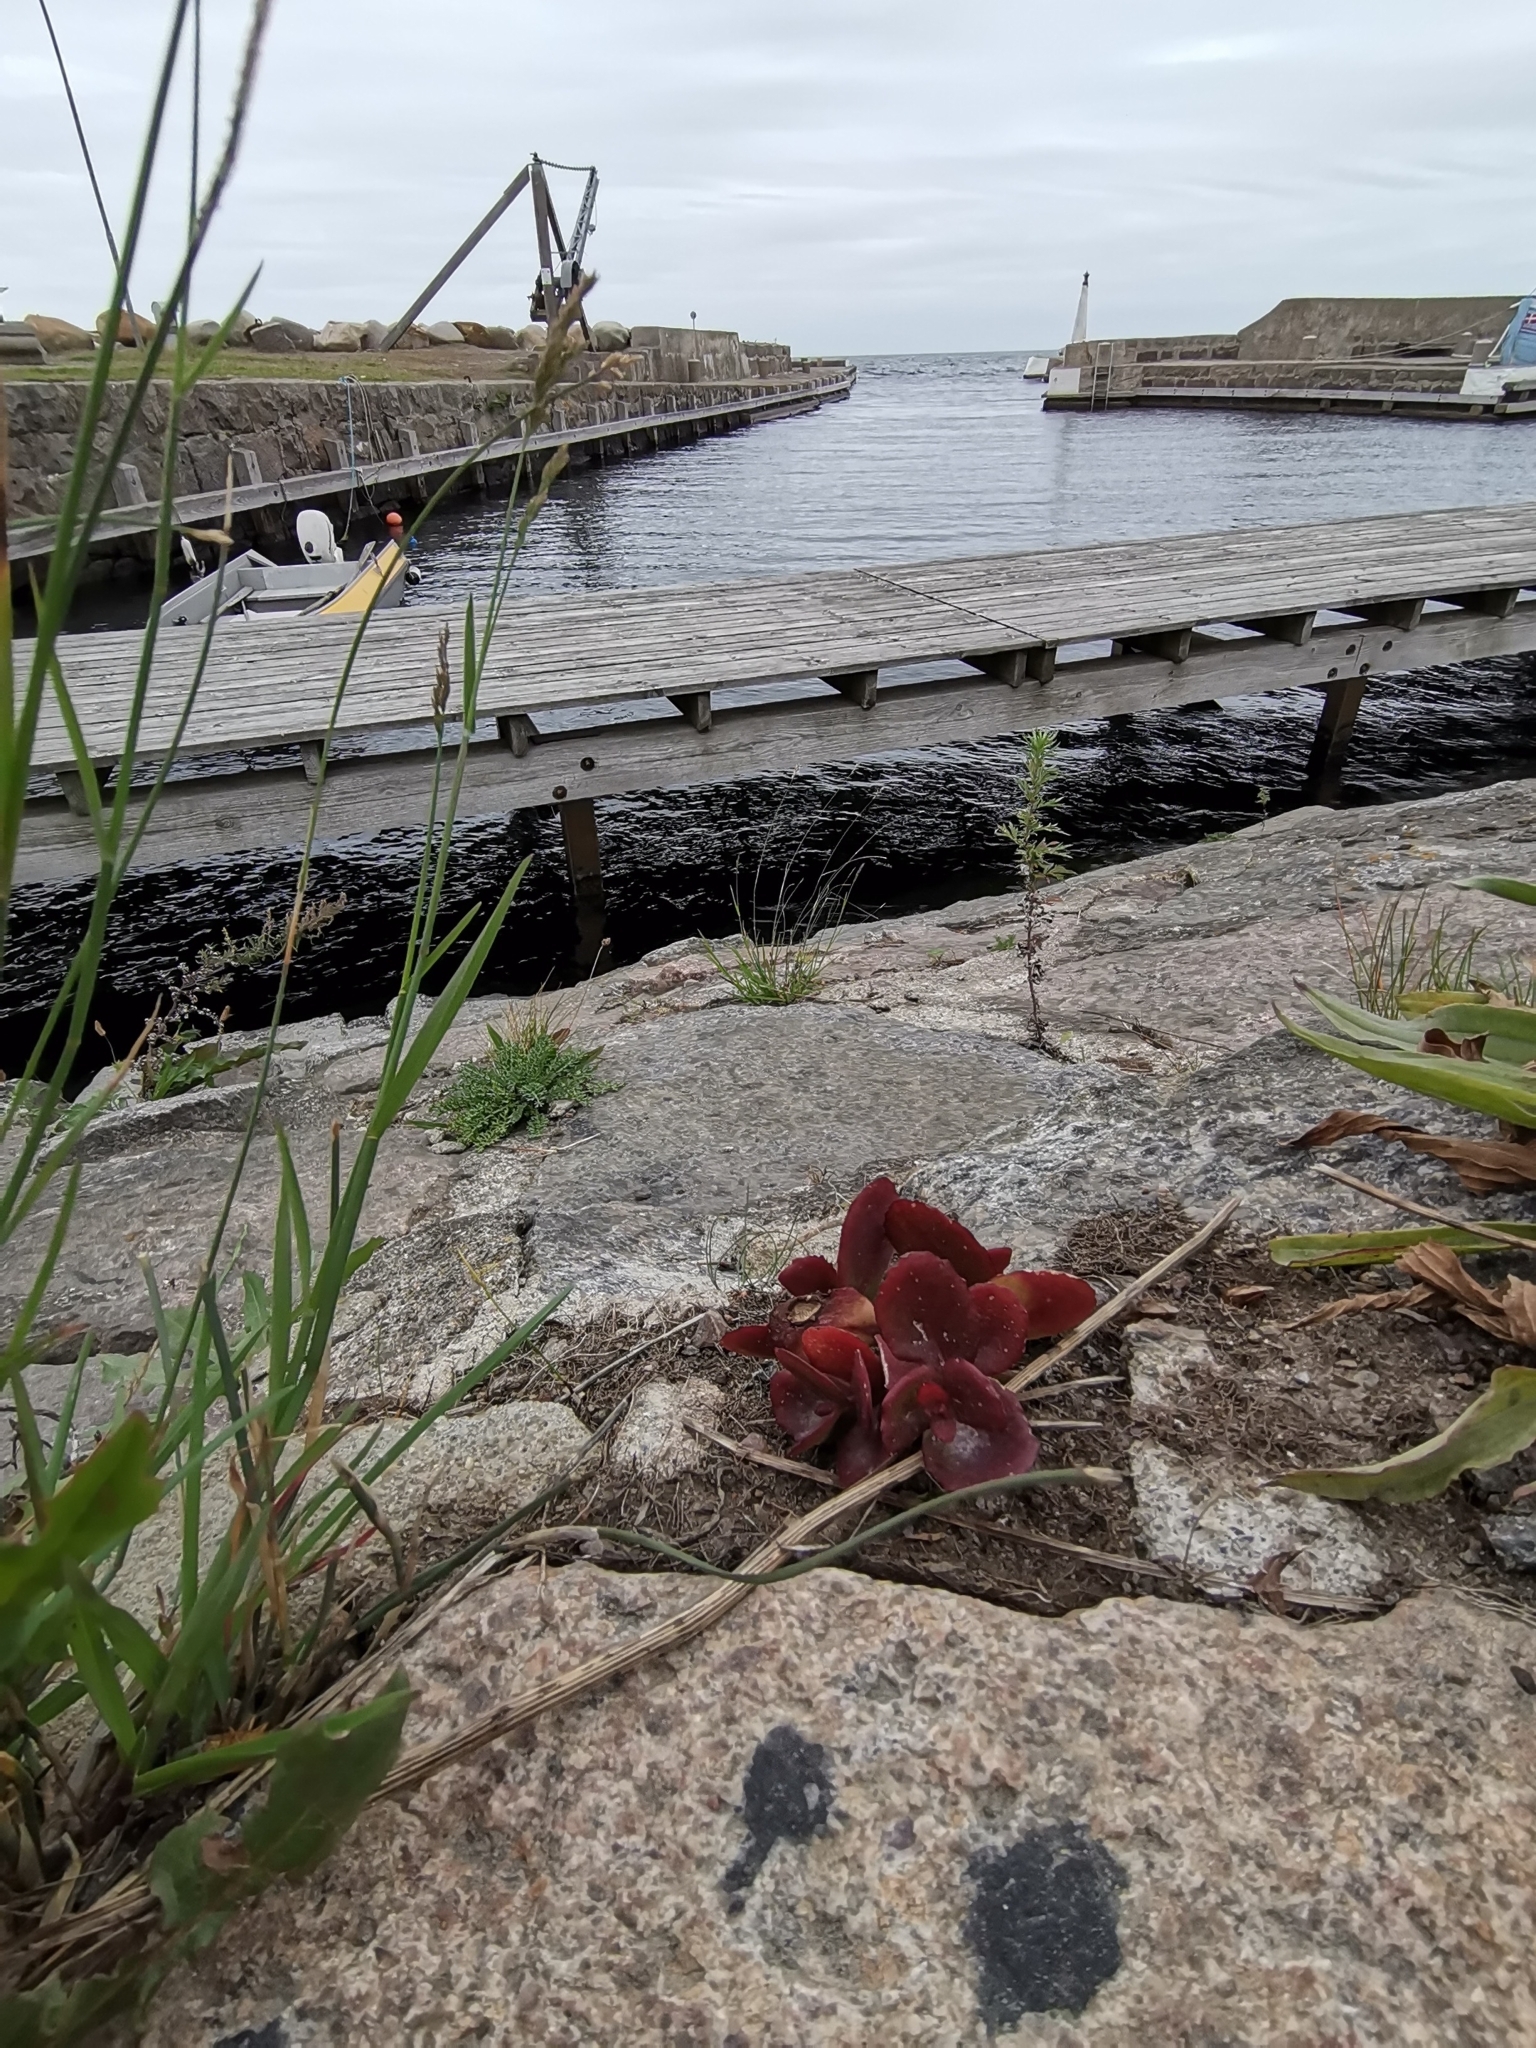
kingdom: Plantae
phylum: Tracheophyta
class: Magnoliopsida
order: Saxifragales
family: Crassulaceae
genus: Hylotelephium
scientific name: Hylotelephium maximum
